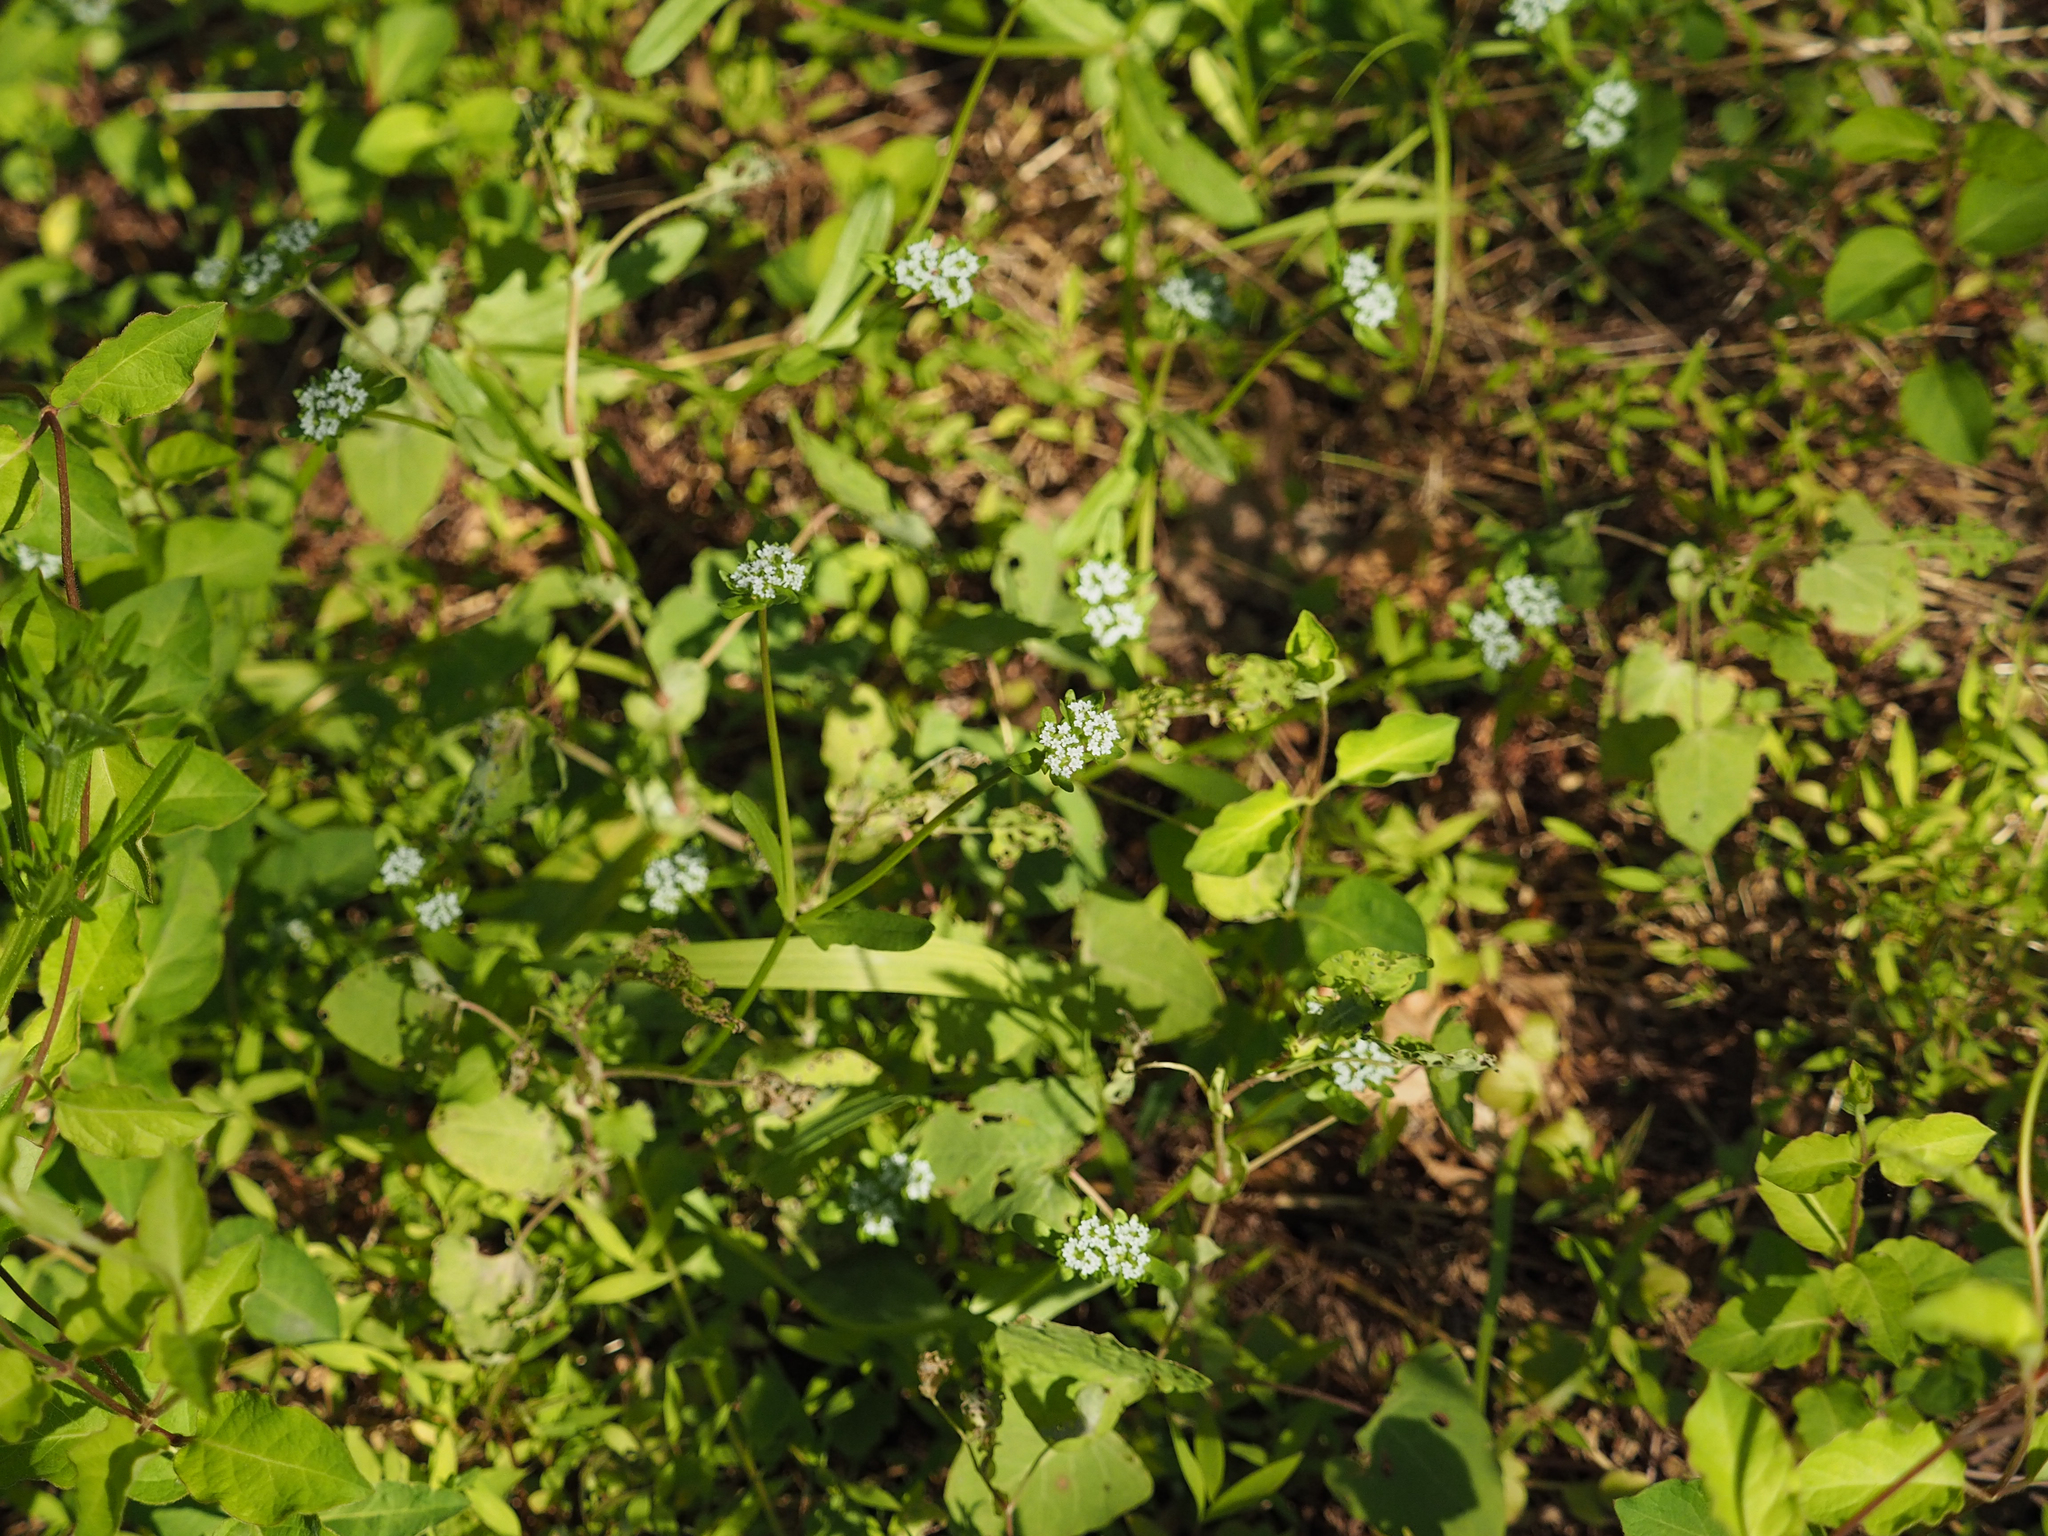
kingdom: Plantae
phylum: Tracheophyta
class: Magnoliopsida
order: Dipsacales
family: Caprifoliaceae
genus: Valerianella
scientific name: Valerianella locusta
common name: Common cornsalad
